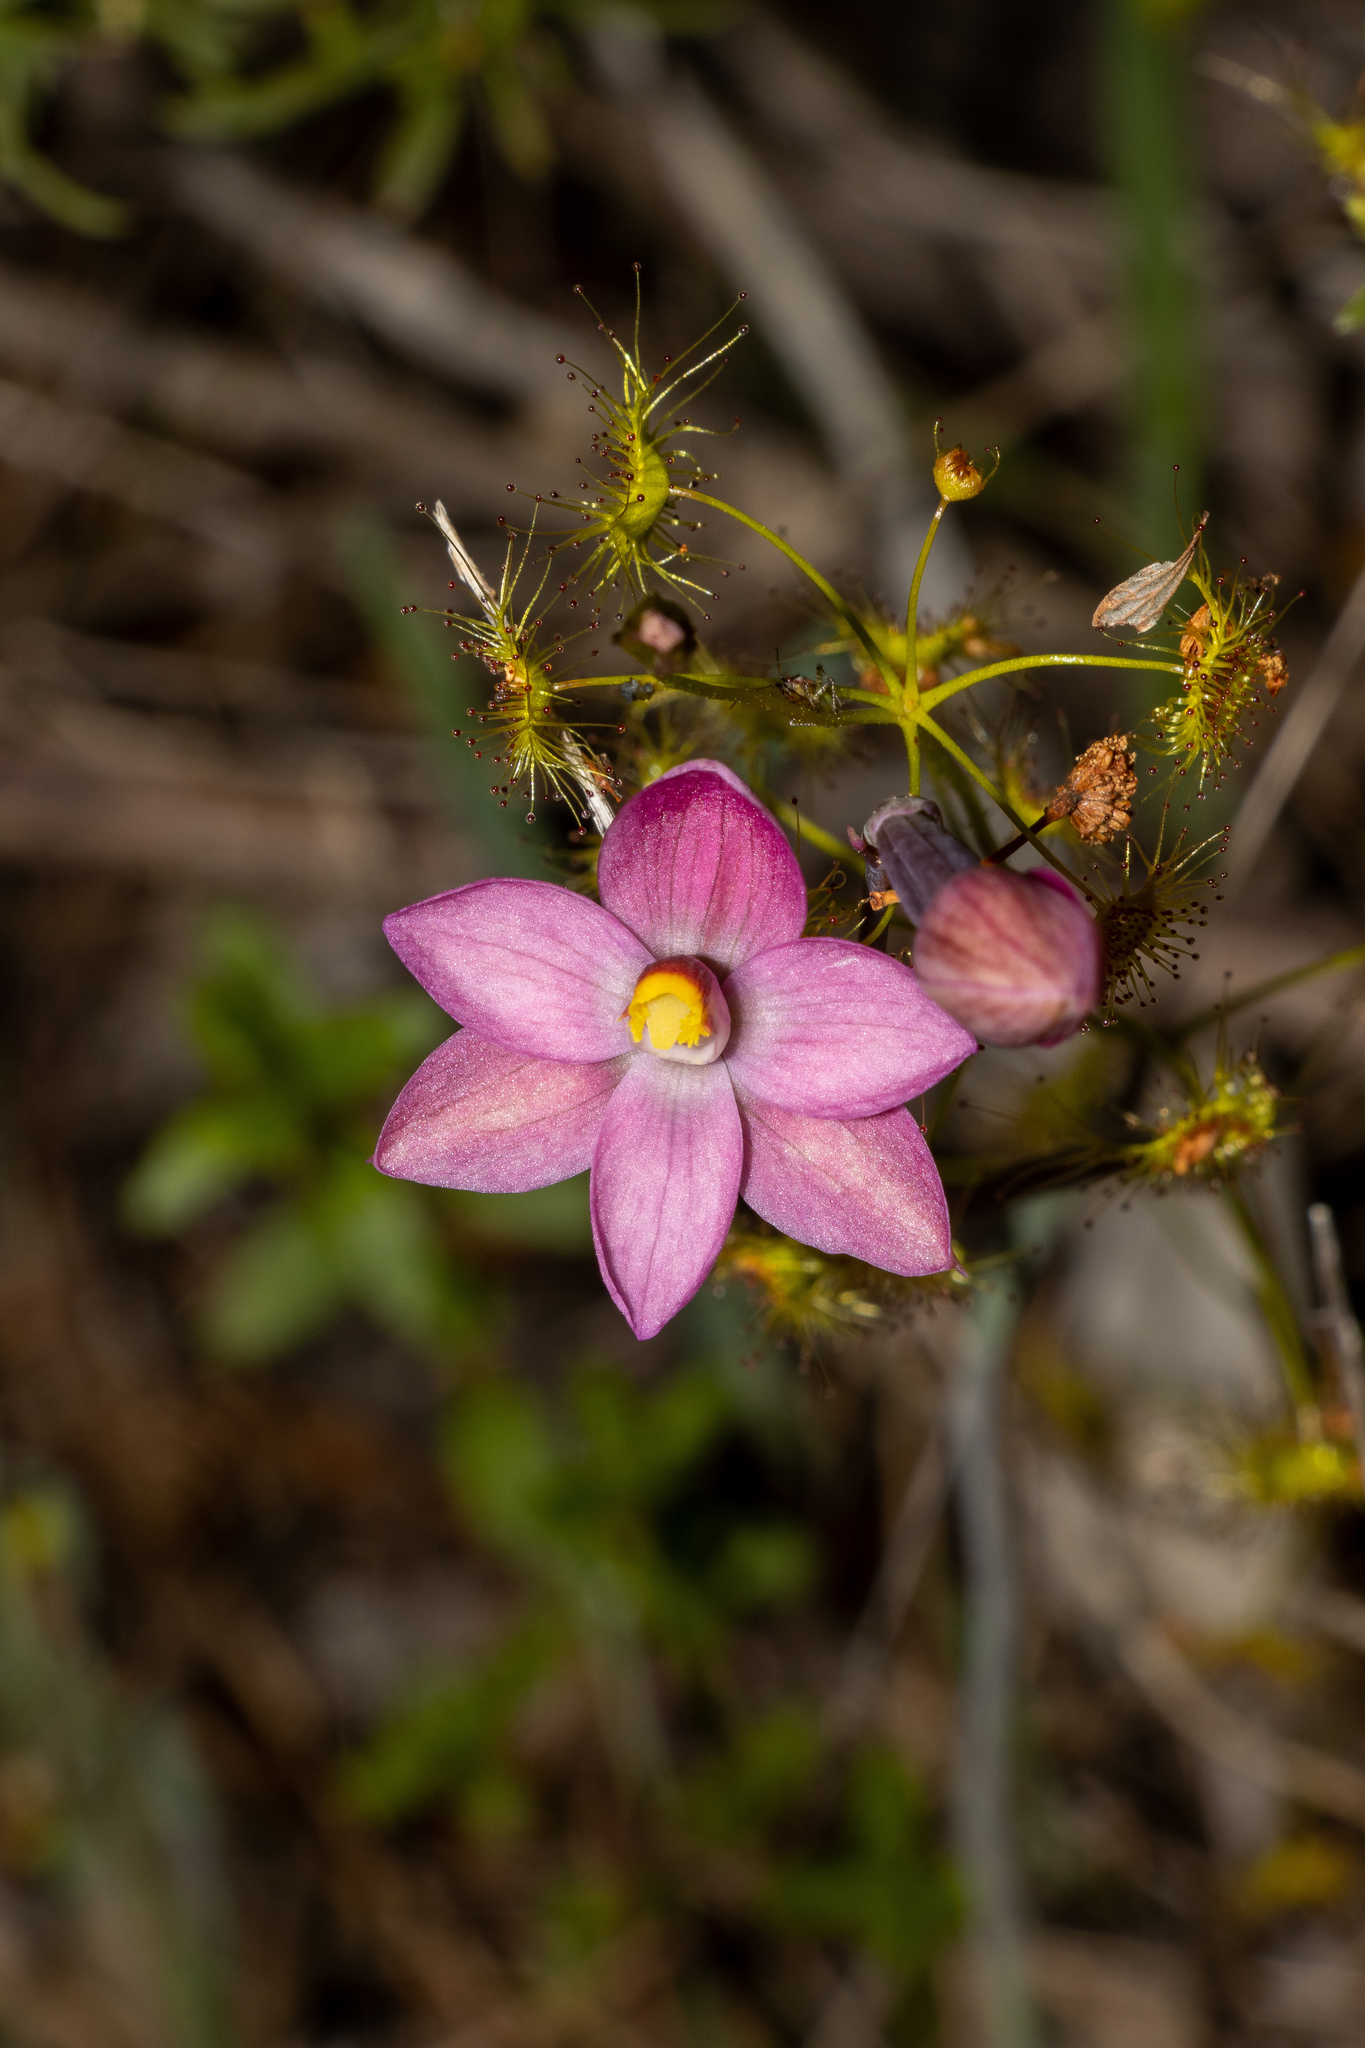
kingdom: Plantae
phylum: Tracheophyta
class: Liliopsida
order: Asparagales
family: Orchidaceae
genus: Thelymitra
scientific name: Thelymitra rubra
